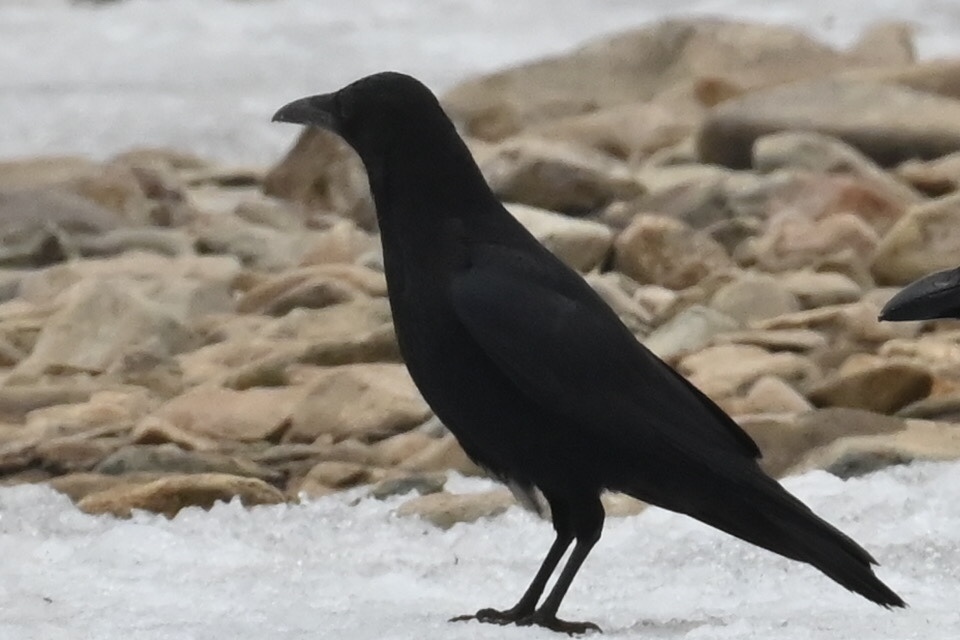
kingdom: Animalia
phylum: Chordata
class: Aves
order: Passeriformes
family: Corvidae
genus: Corvus
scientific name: Corvus corone
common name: Carrion crow
